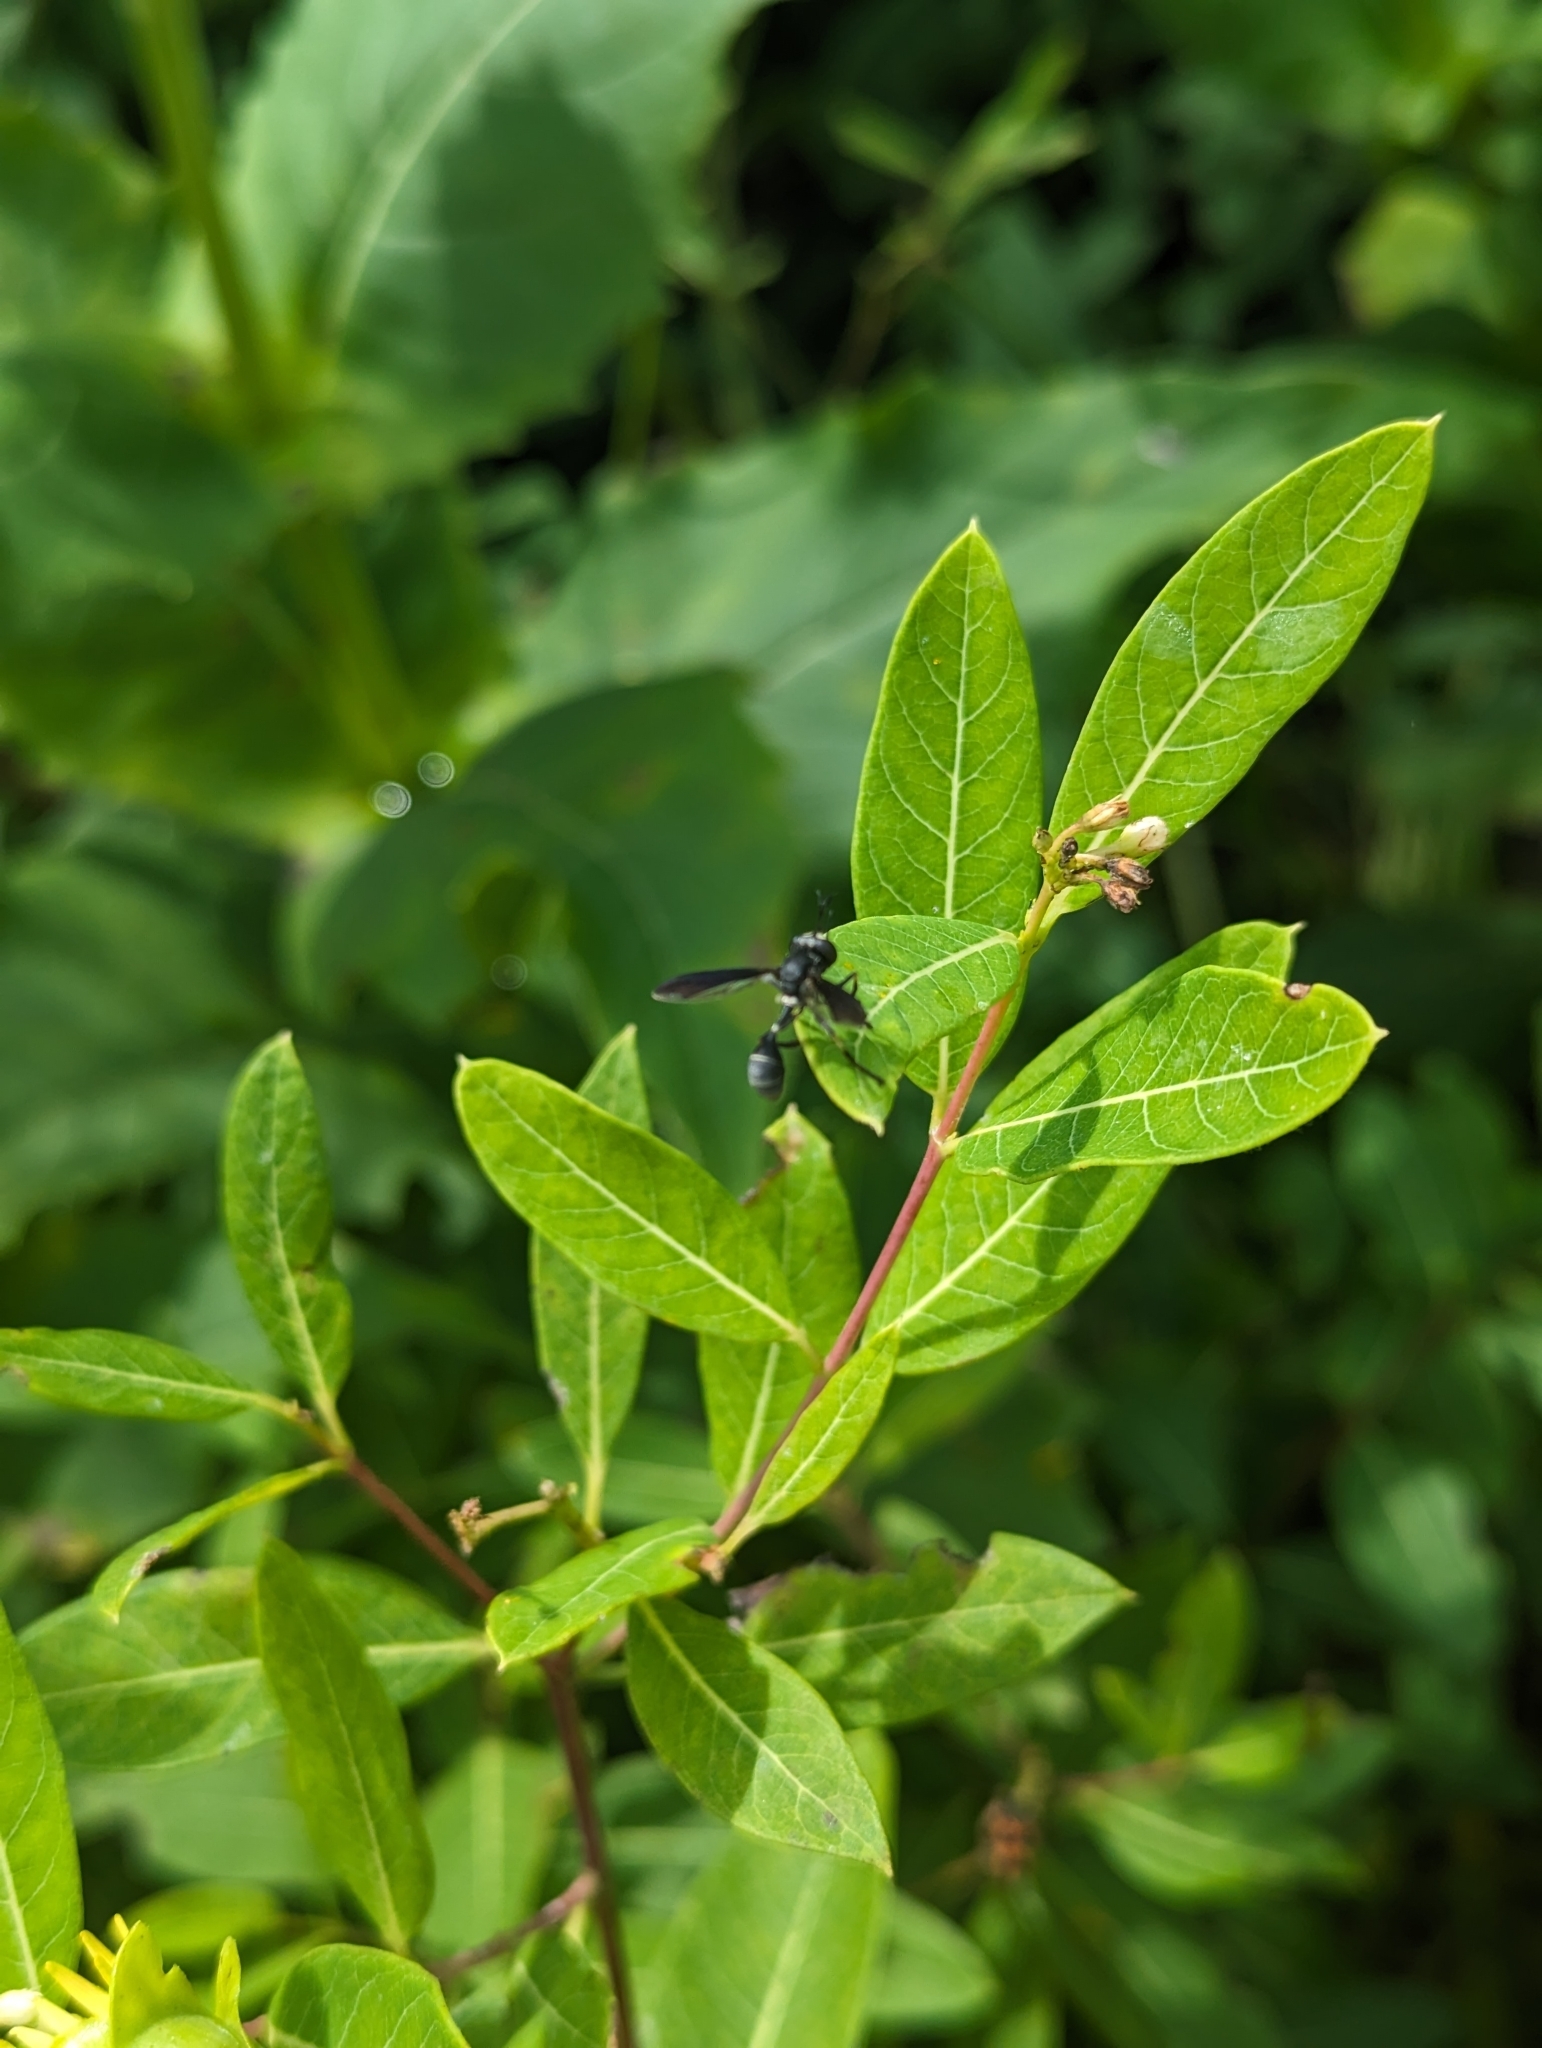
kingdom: Animalia
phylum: Arthropoda
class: Insecta
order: Diptera
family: Conopidae
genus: Physocephala
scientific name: Physocephala tibialis
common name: Common eastern physocephala
